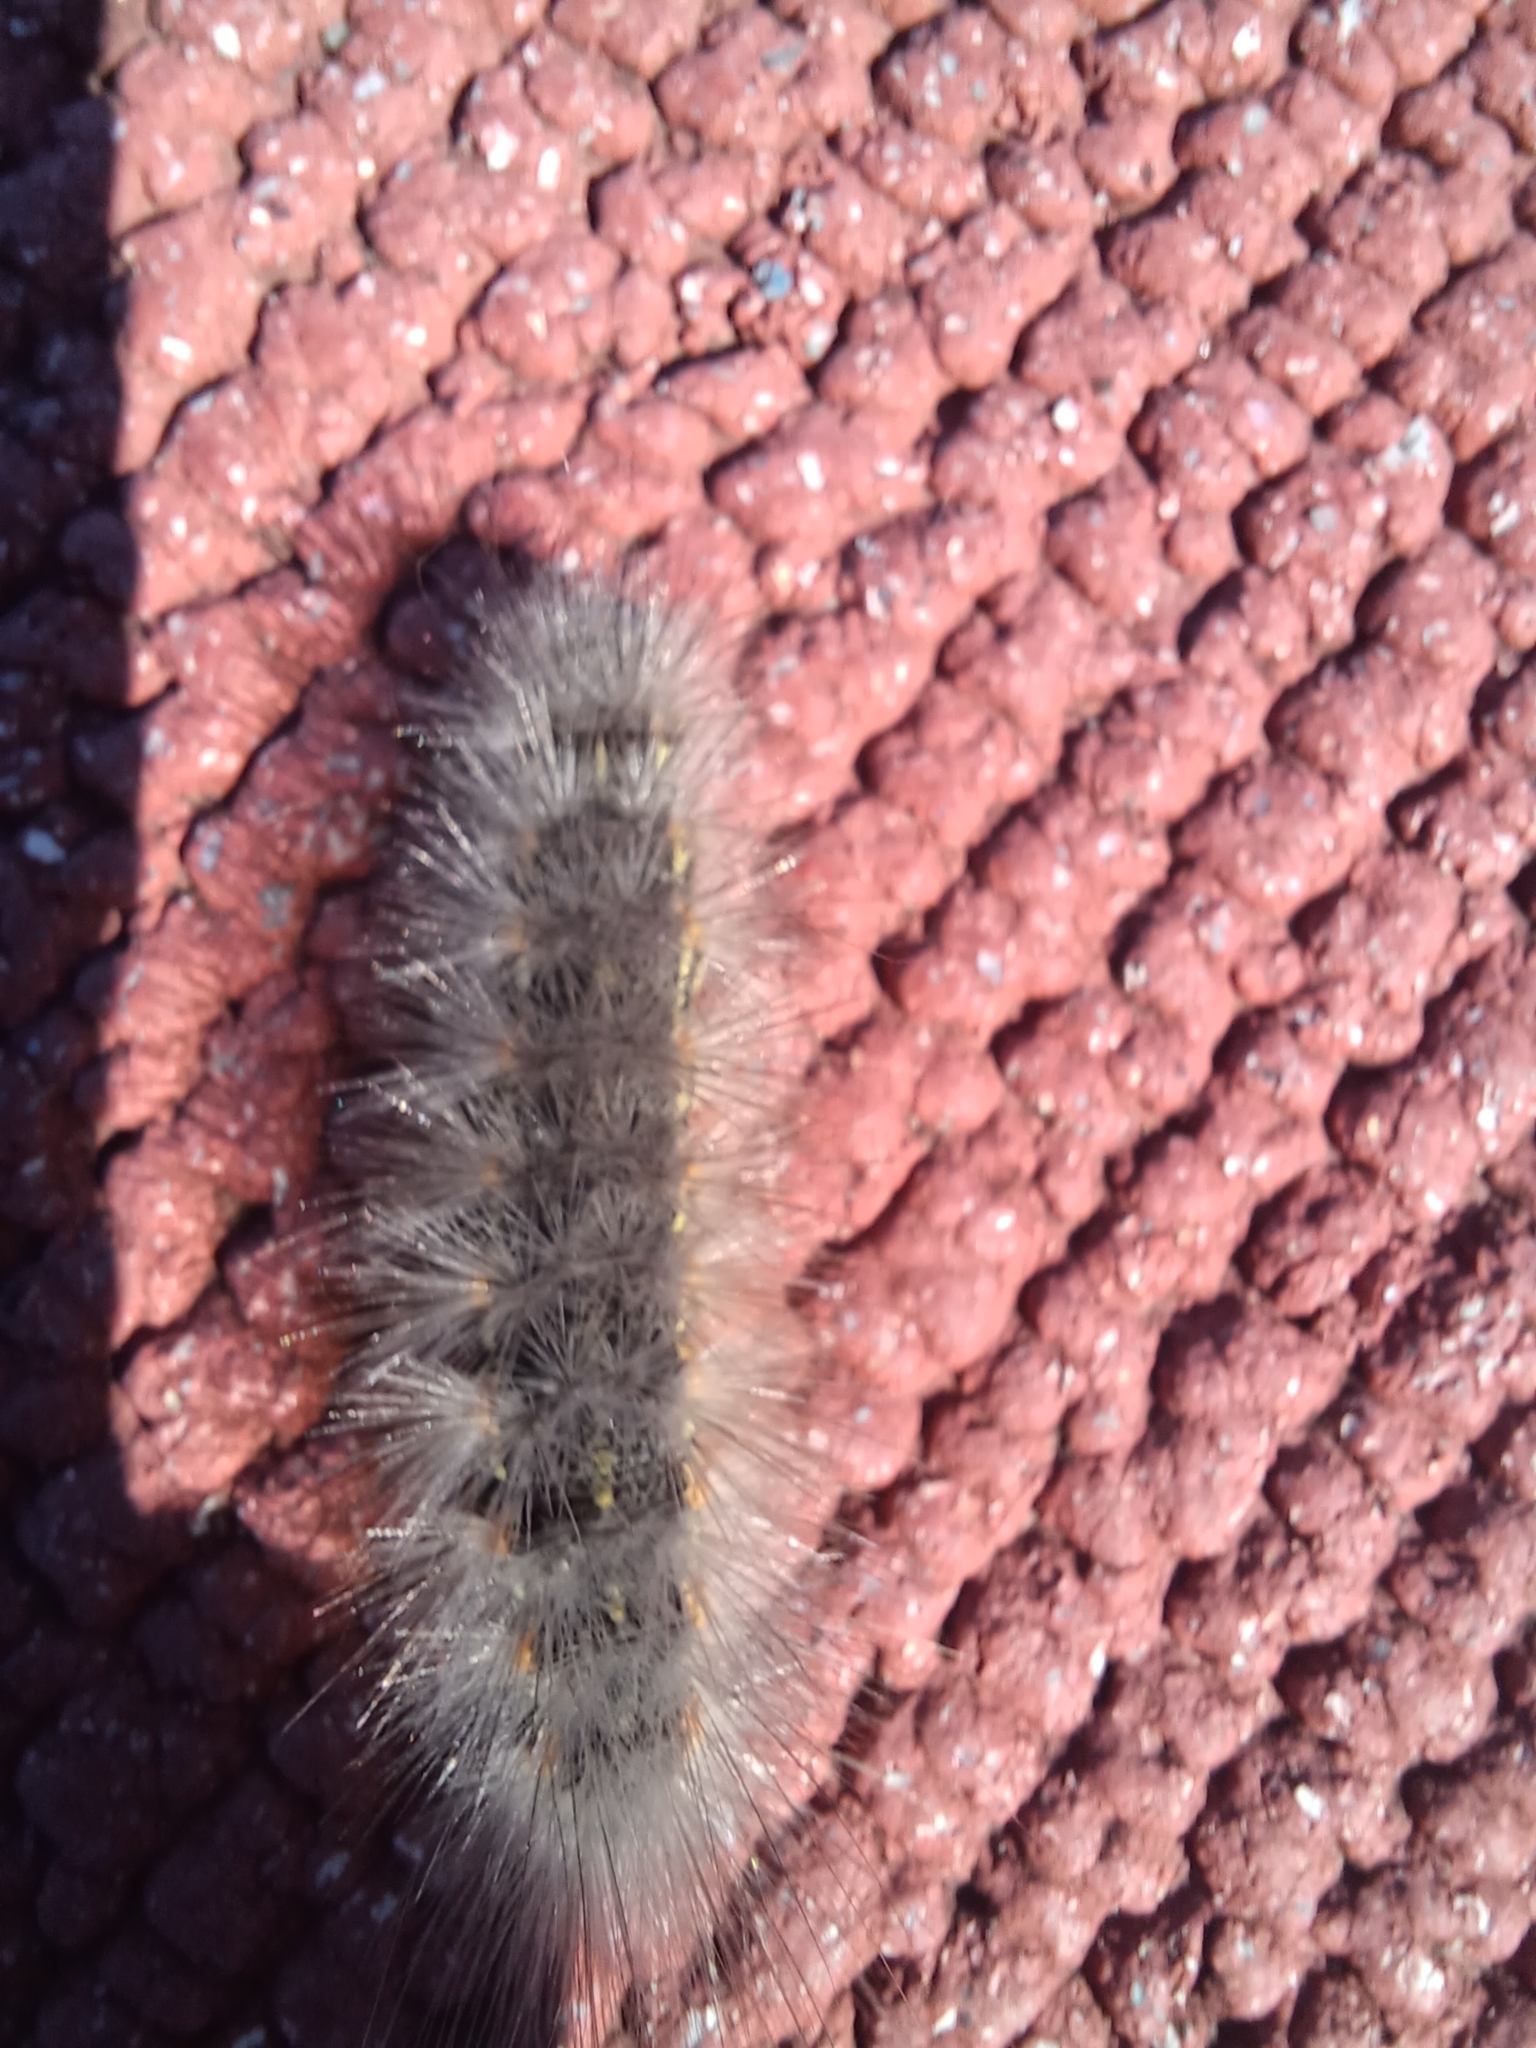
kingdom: Animalia
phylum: Arthropoda
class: Insecta
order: Lepidoptera
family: Erebidae
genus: Estigmene
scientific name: Estigmene acrea
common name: Salt marsh moth
